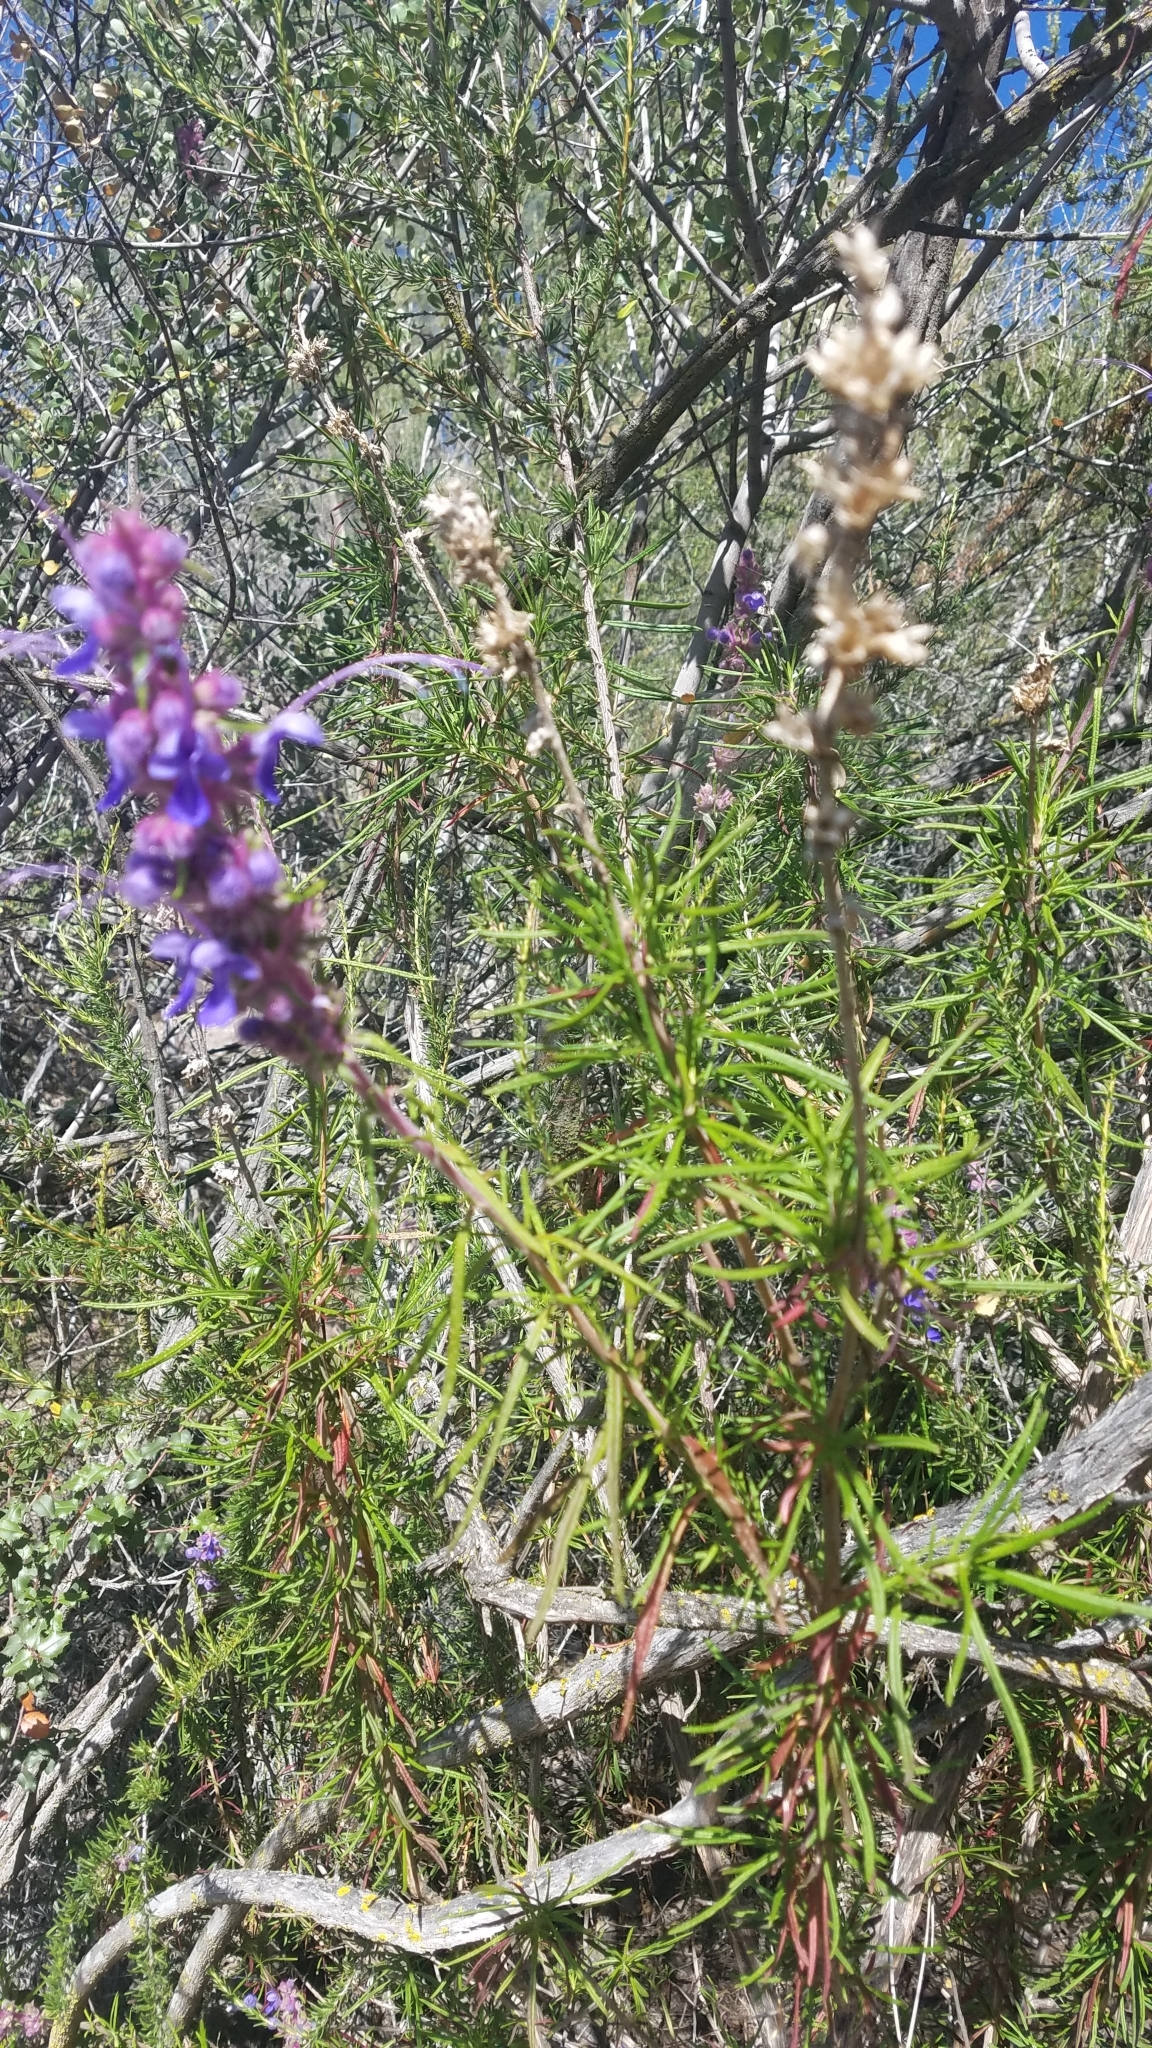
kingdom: Plantae
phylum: Tracheophyta
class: Magnoliopsida
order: Lamiales
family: Lamiaceae
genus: Trichostema
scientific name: Trichostema lanatum
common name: Woolly bluecurls
